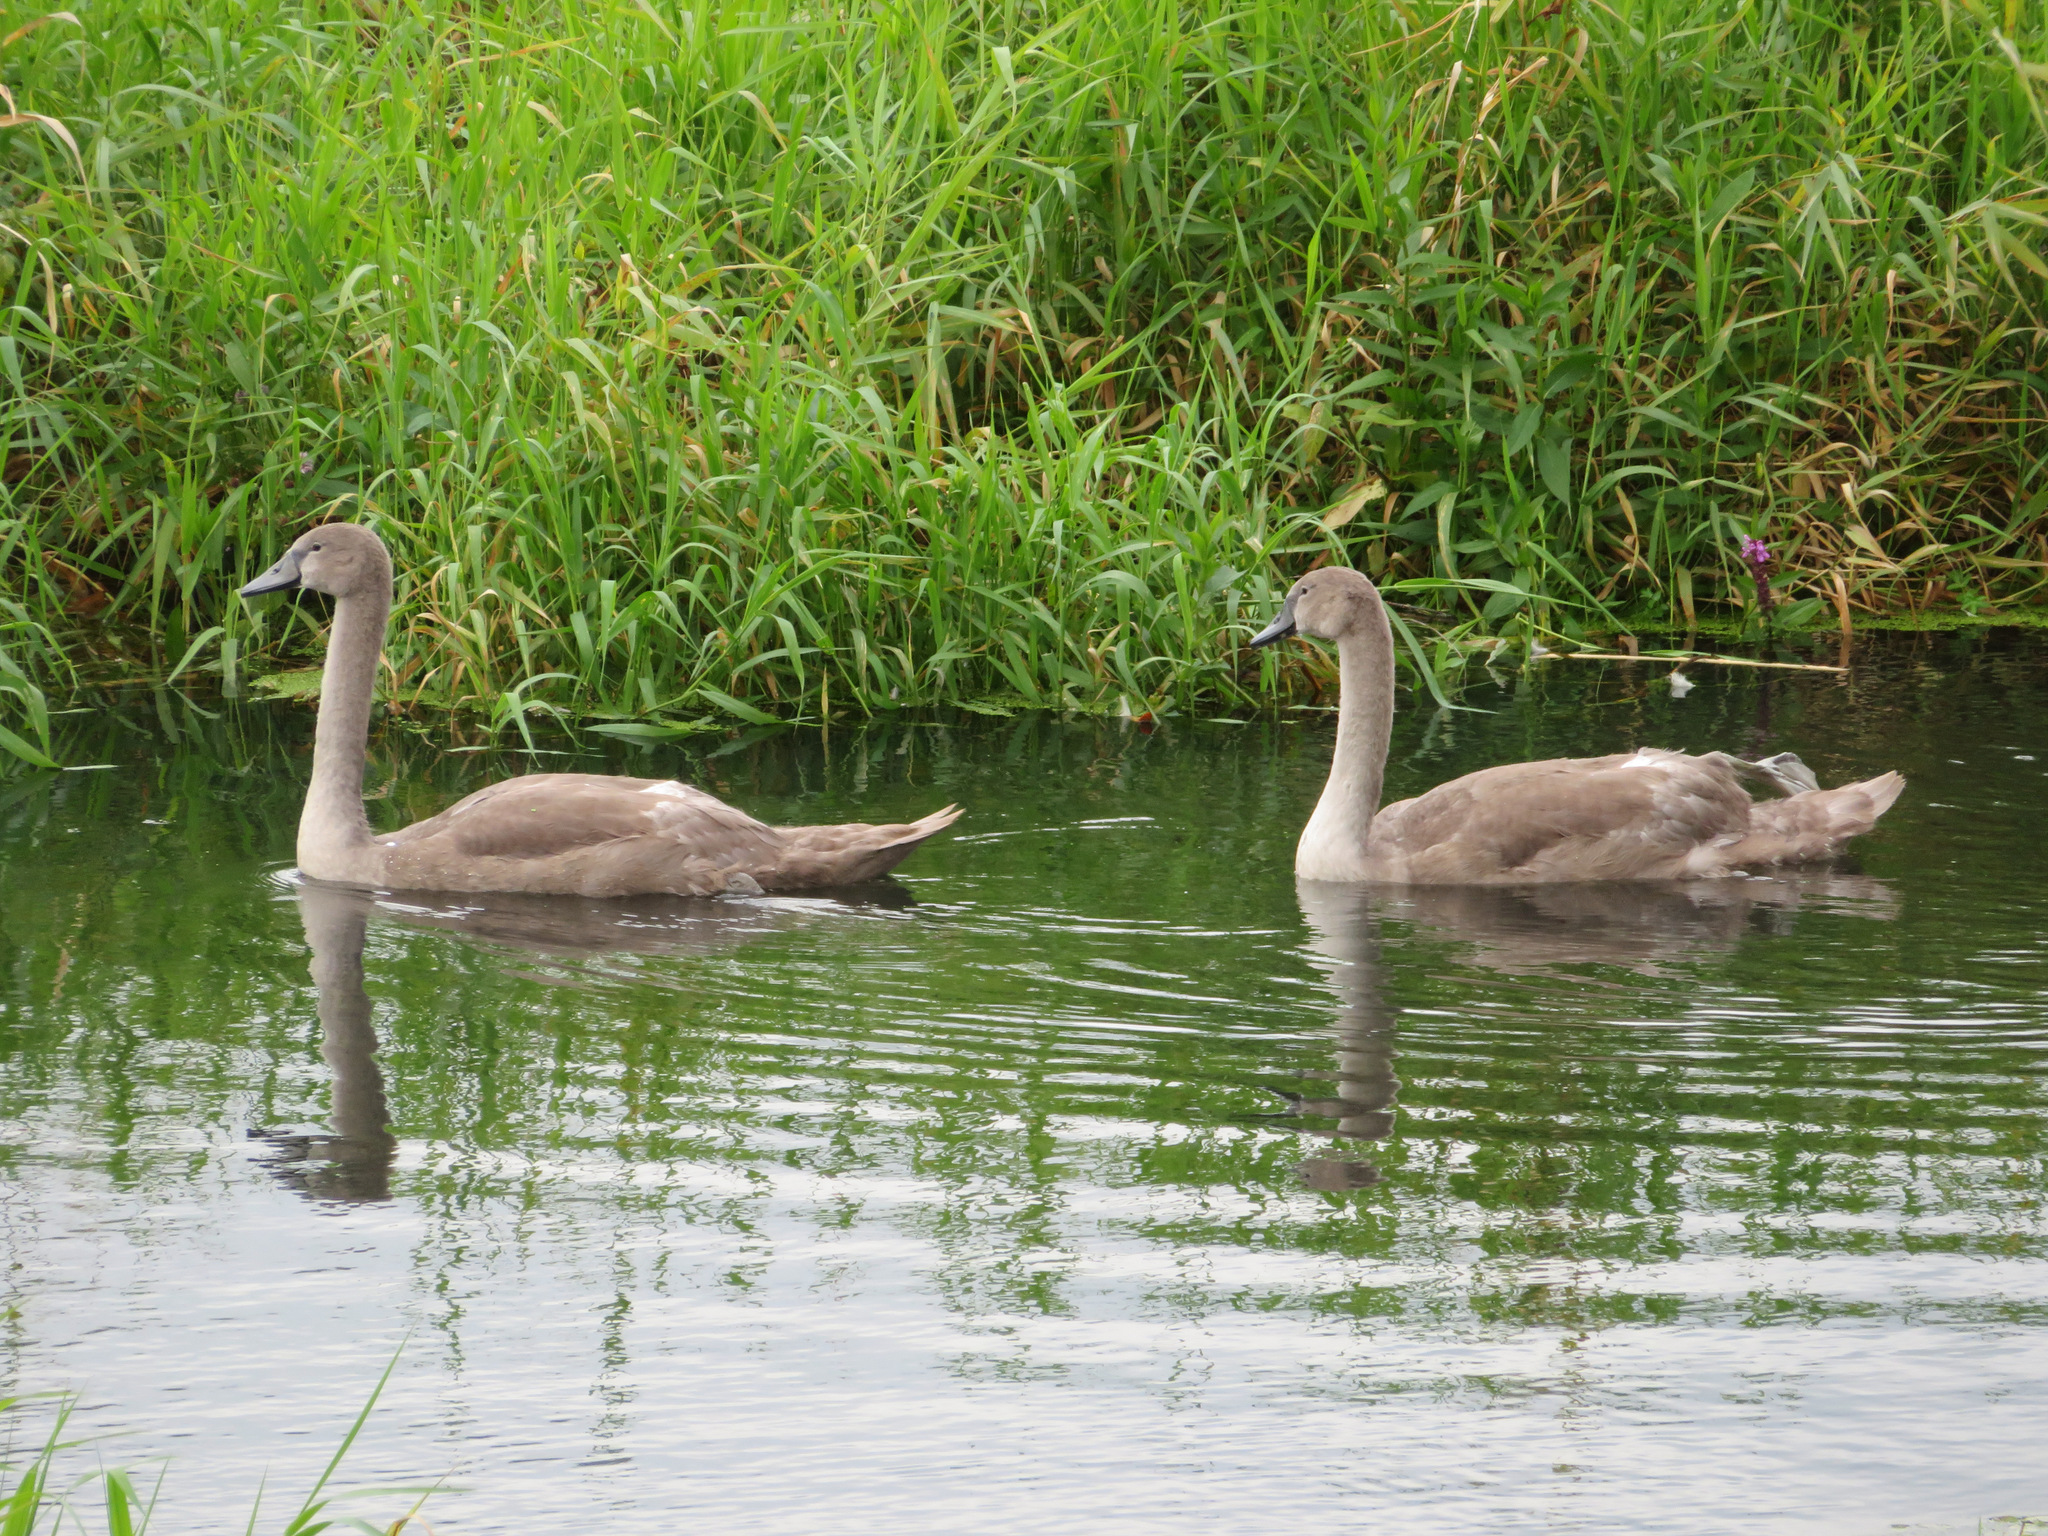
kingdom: Animalia
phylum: Chordata
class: Aves
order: Anseriformes
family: Anatidae
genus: Cygnus
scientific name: Cygnus olor
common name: Mute swan
